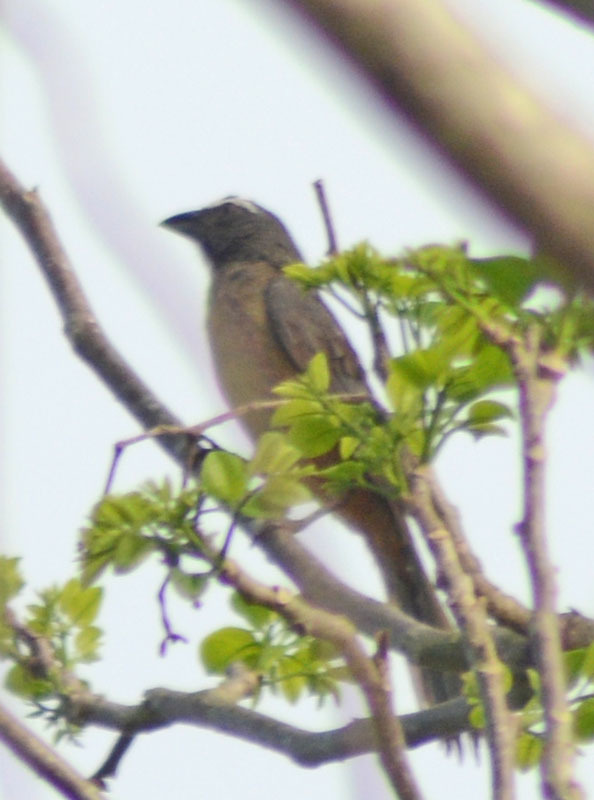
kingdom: Animalia
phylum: Chordata
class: Aves
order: Passeriformes
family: Thraupidae
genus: Saltator
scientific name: Saltator grandis
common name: Cinnamon-bellied saltator
